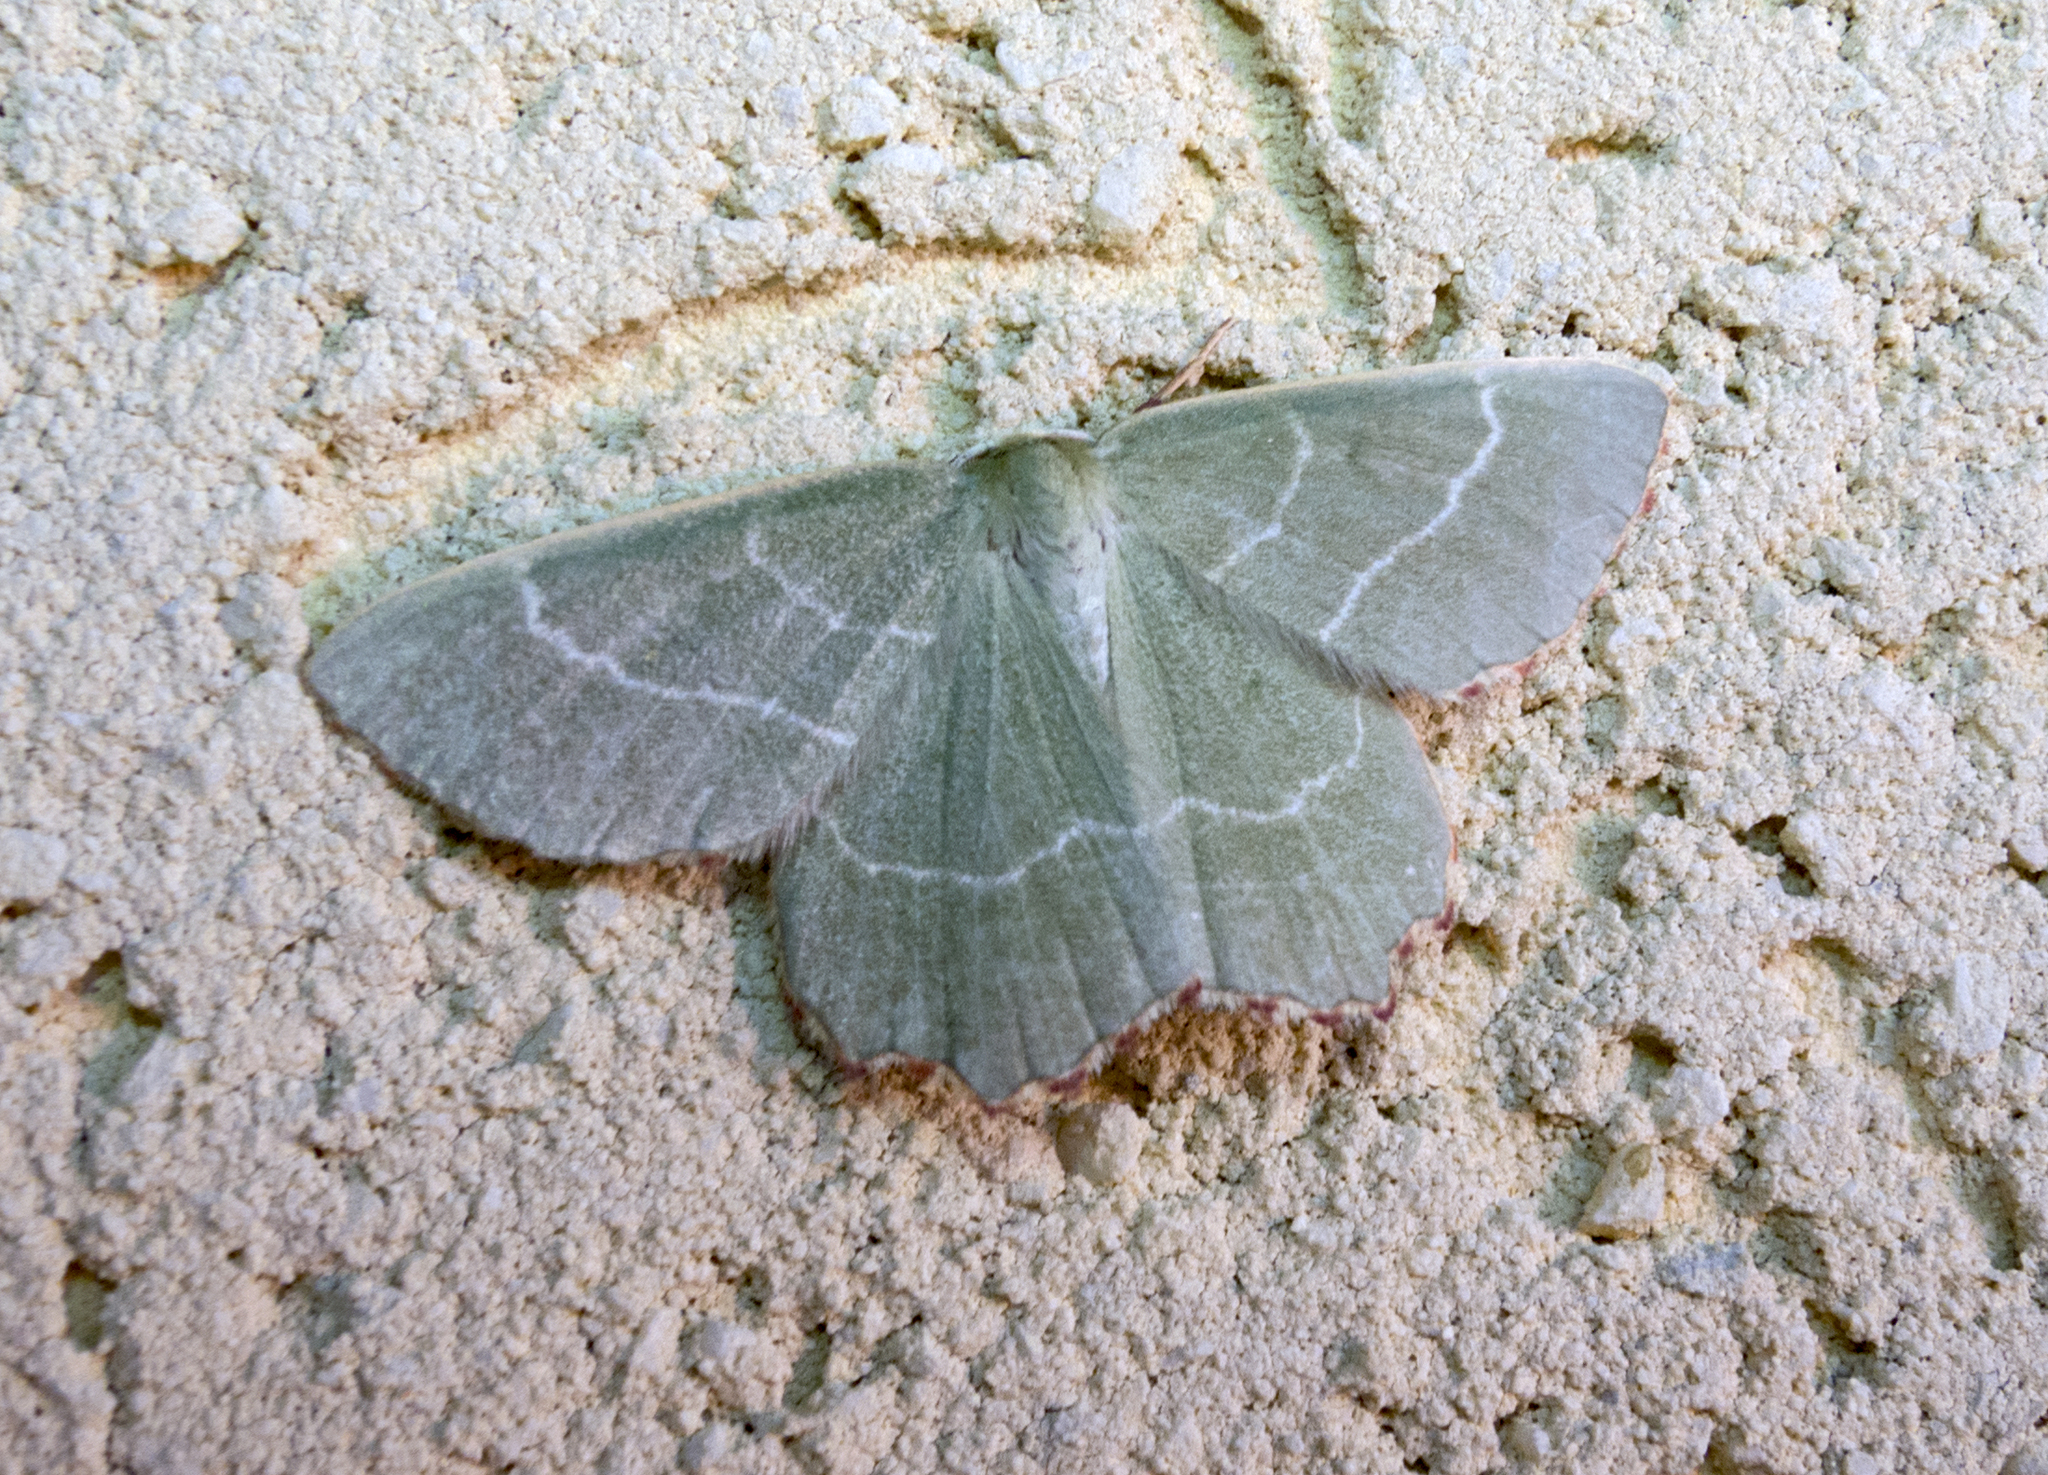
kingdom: Animalia
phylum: Arthropoda
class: Insecta
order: Lepidoptera
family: Geometridae
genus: Thalera
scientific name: Thalera fimbrialis
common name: Sussex emerald
